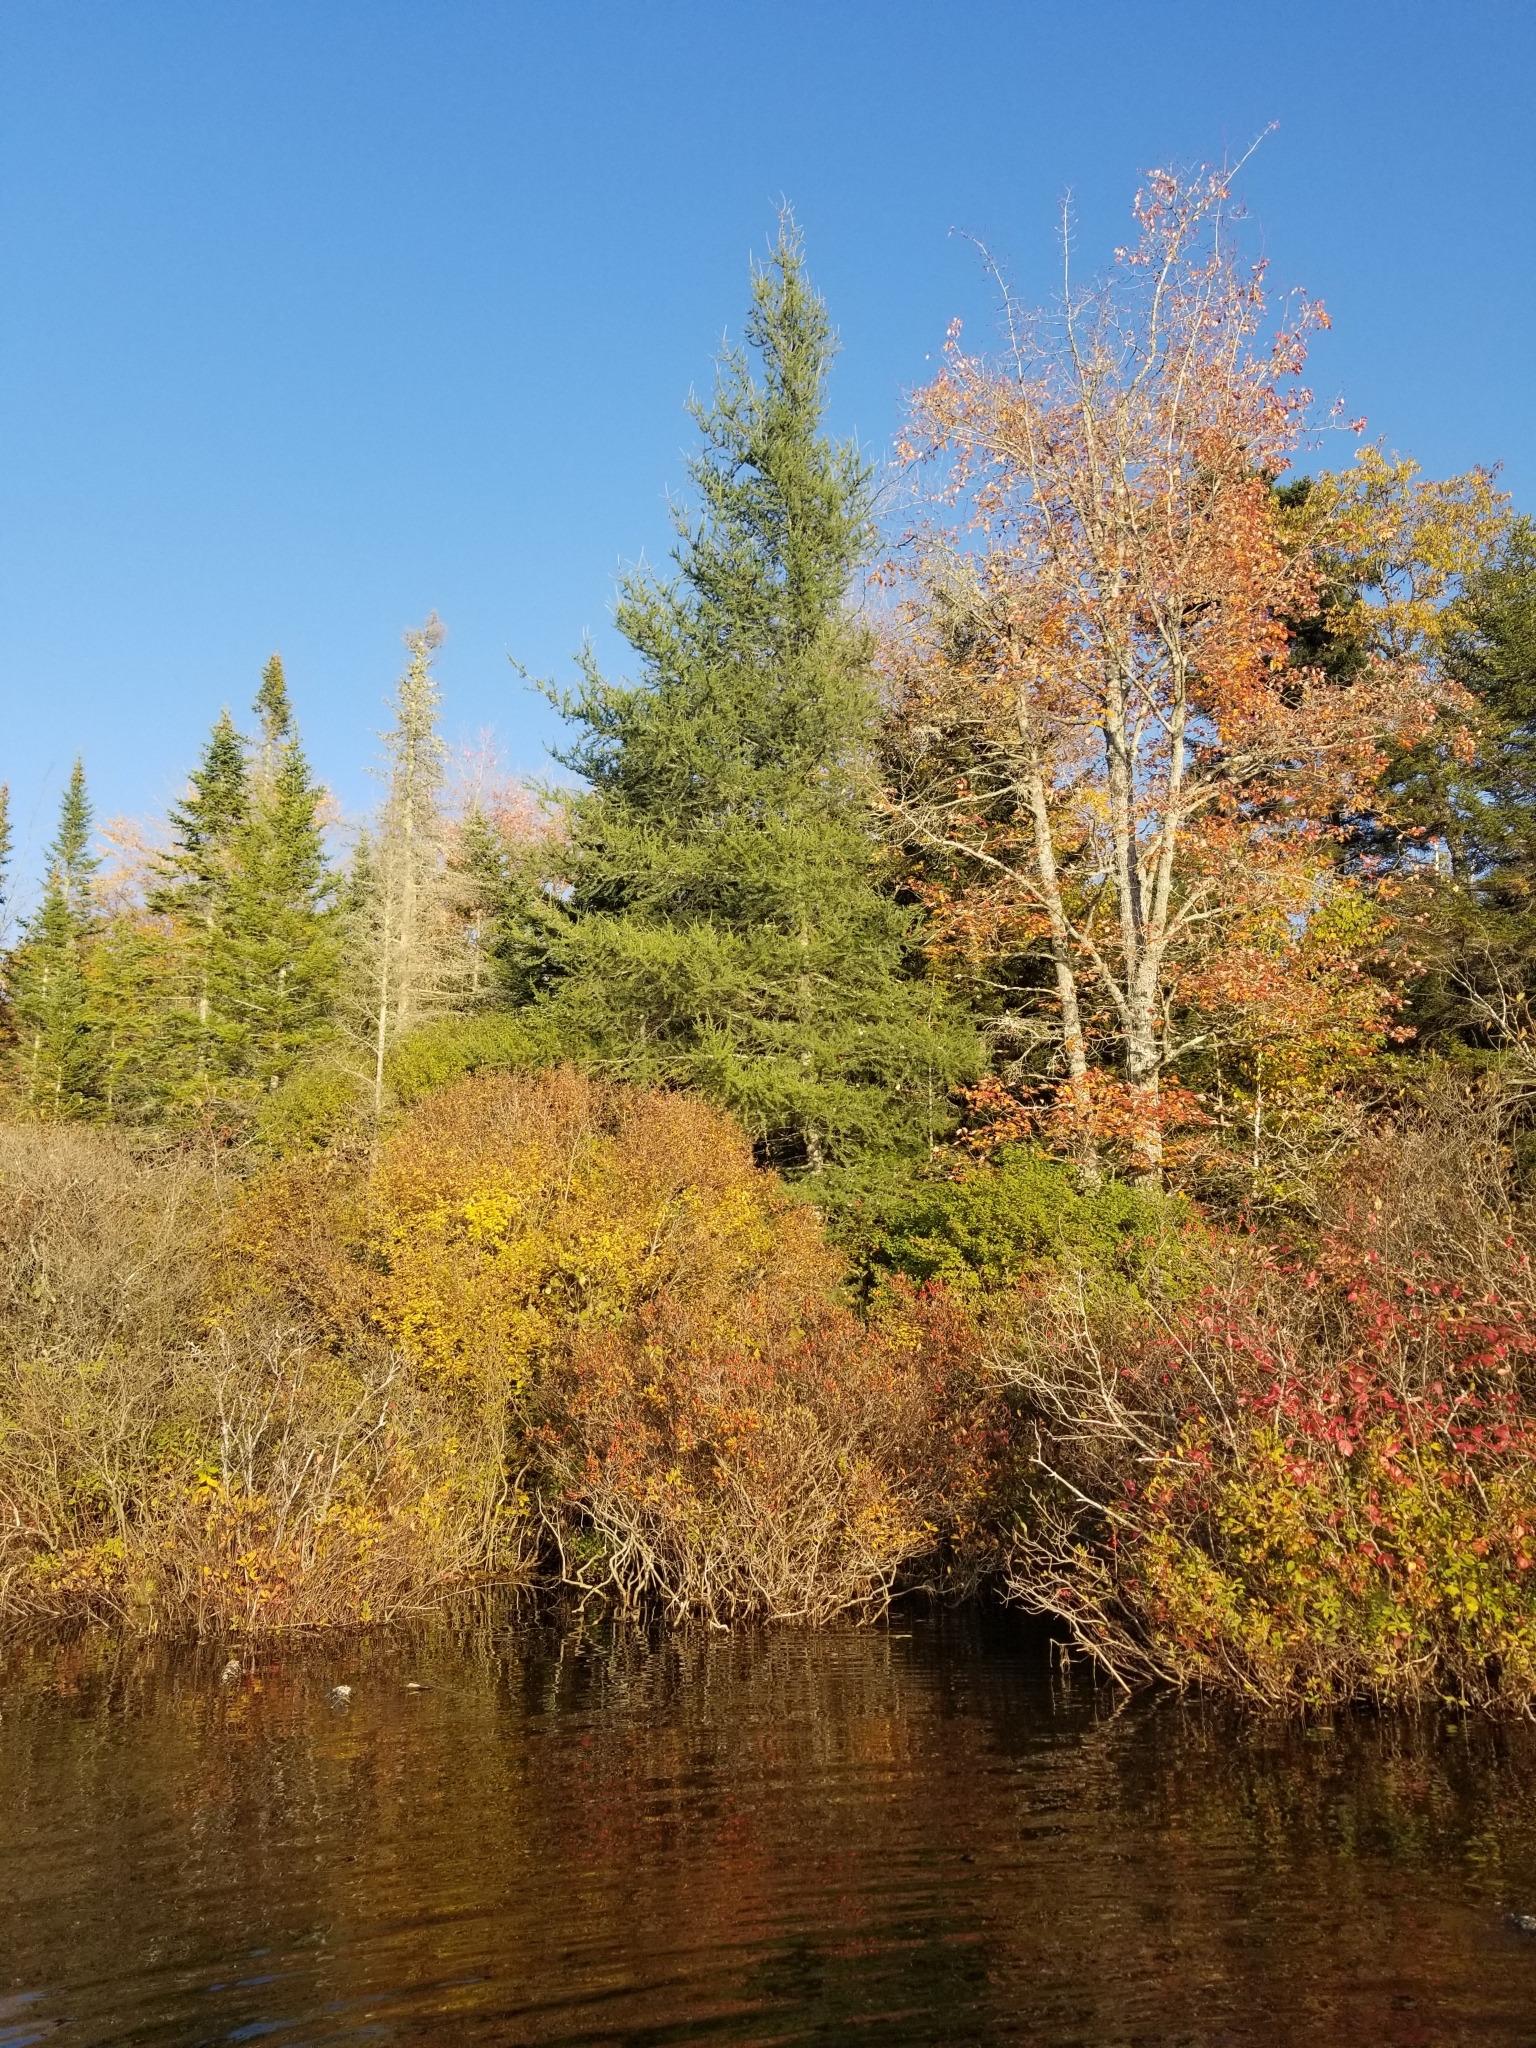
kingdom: Plantae
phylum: Tracheophyta
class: Pinopsida
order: Pinales
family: Pinaceae
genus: Larix
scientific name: Larix laricina
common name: American larch
